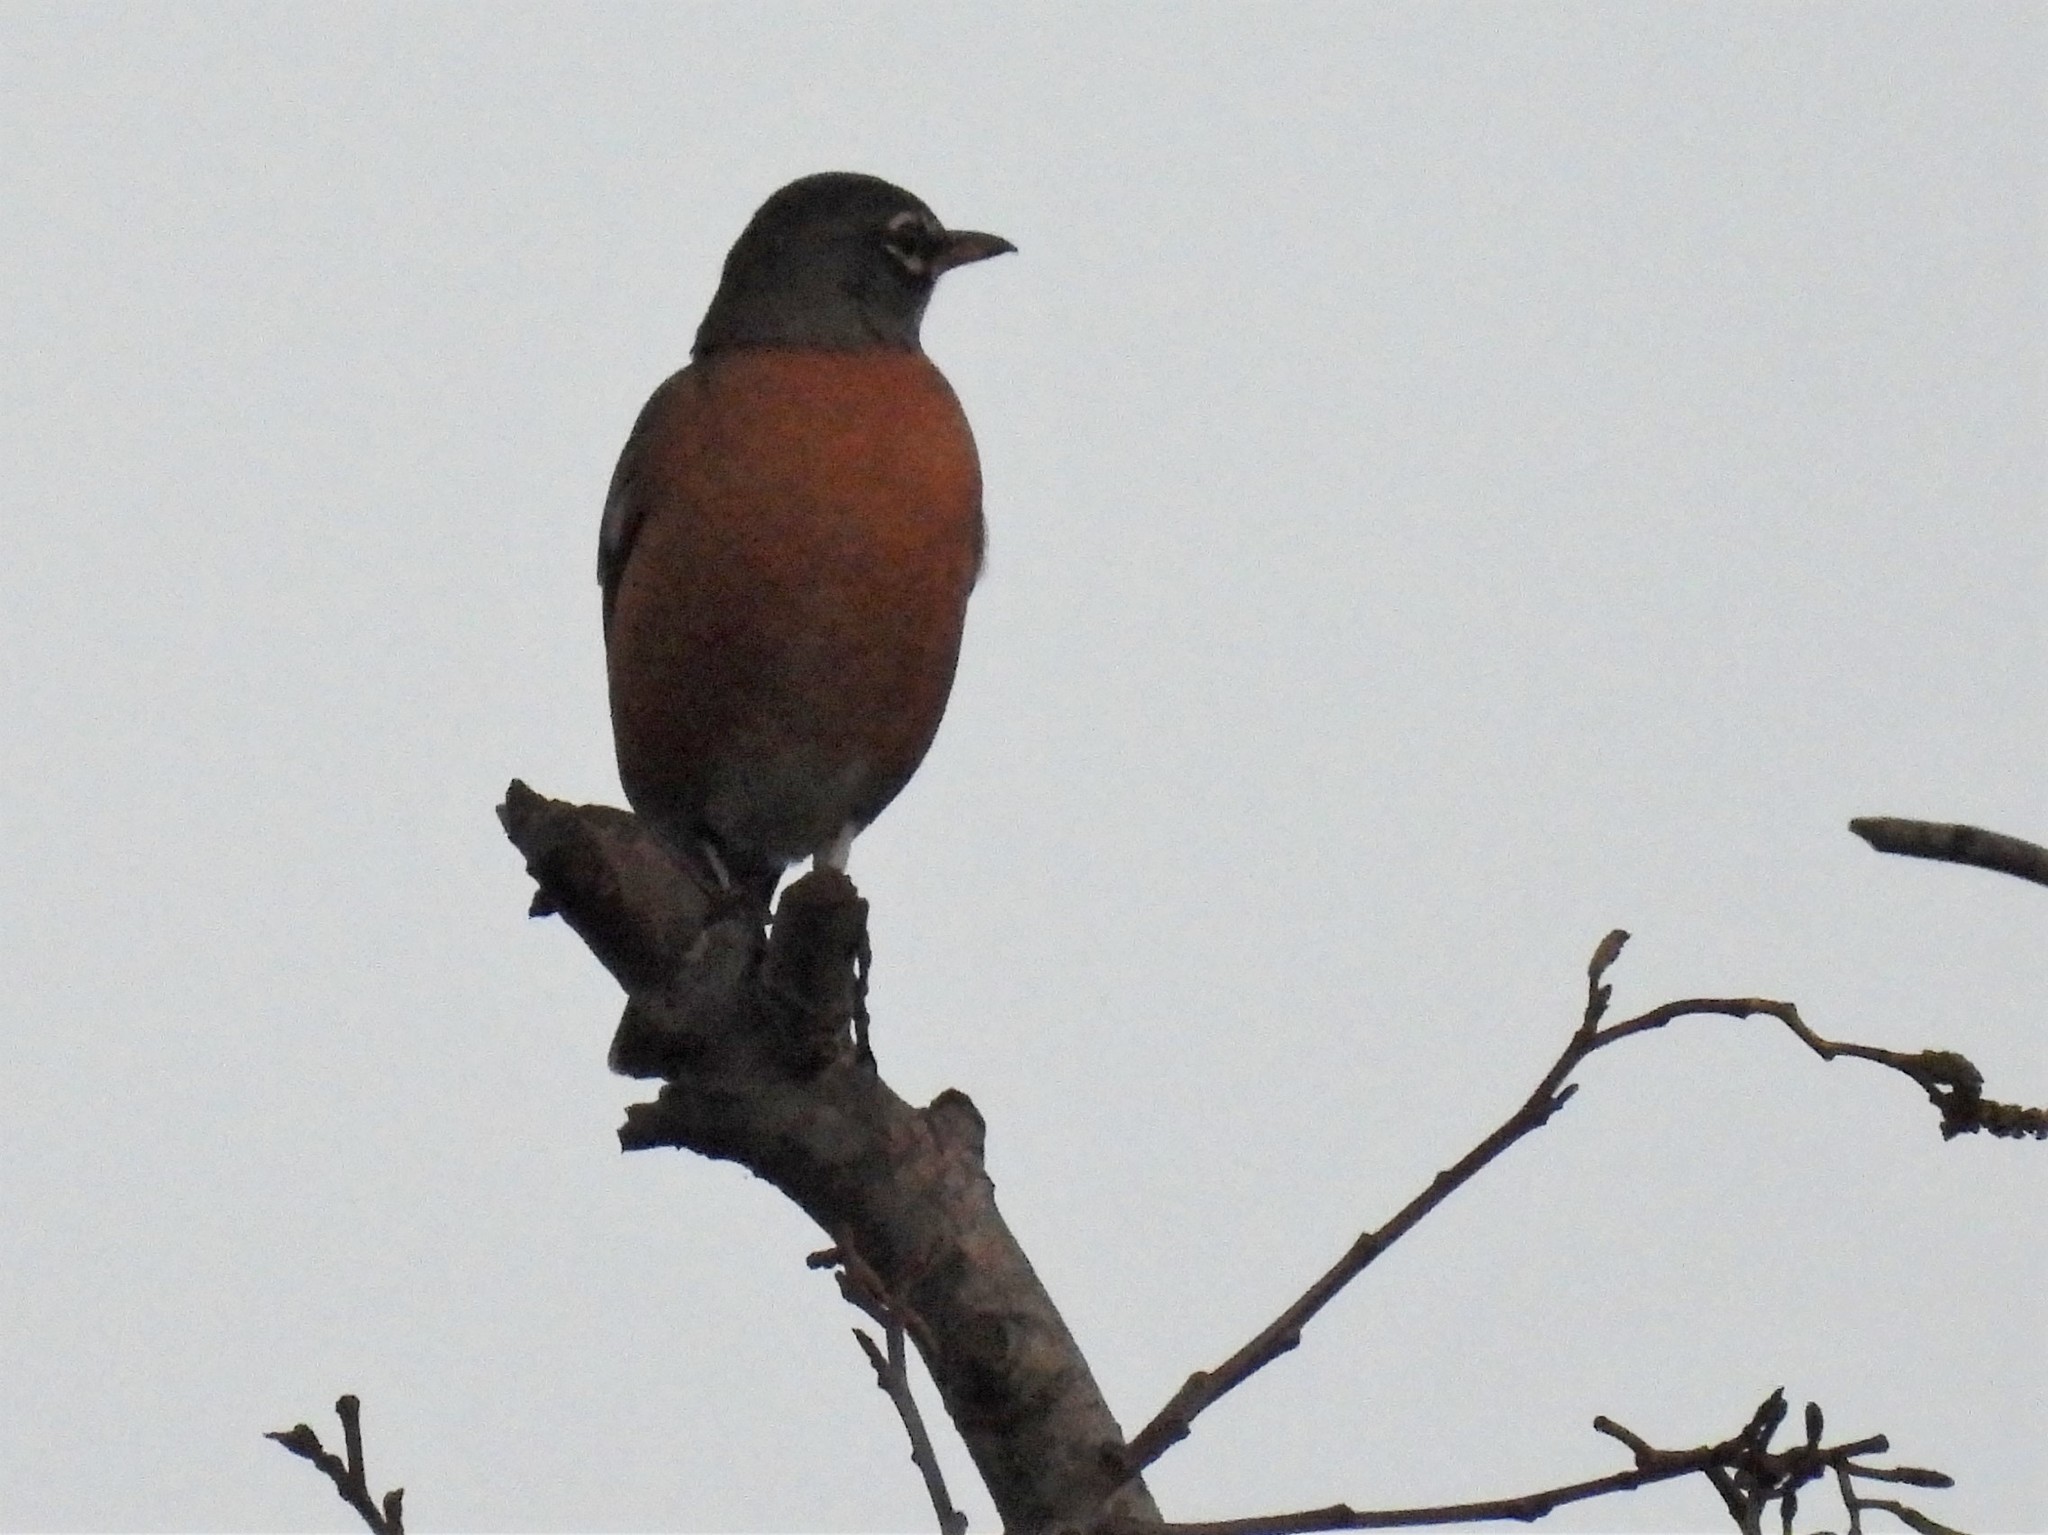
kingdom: Animalia
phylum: Chordata
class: Aves
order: Passeriformes
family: Turdidae
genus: Turdus
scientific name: Turdus migratorius
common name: American robin
